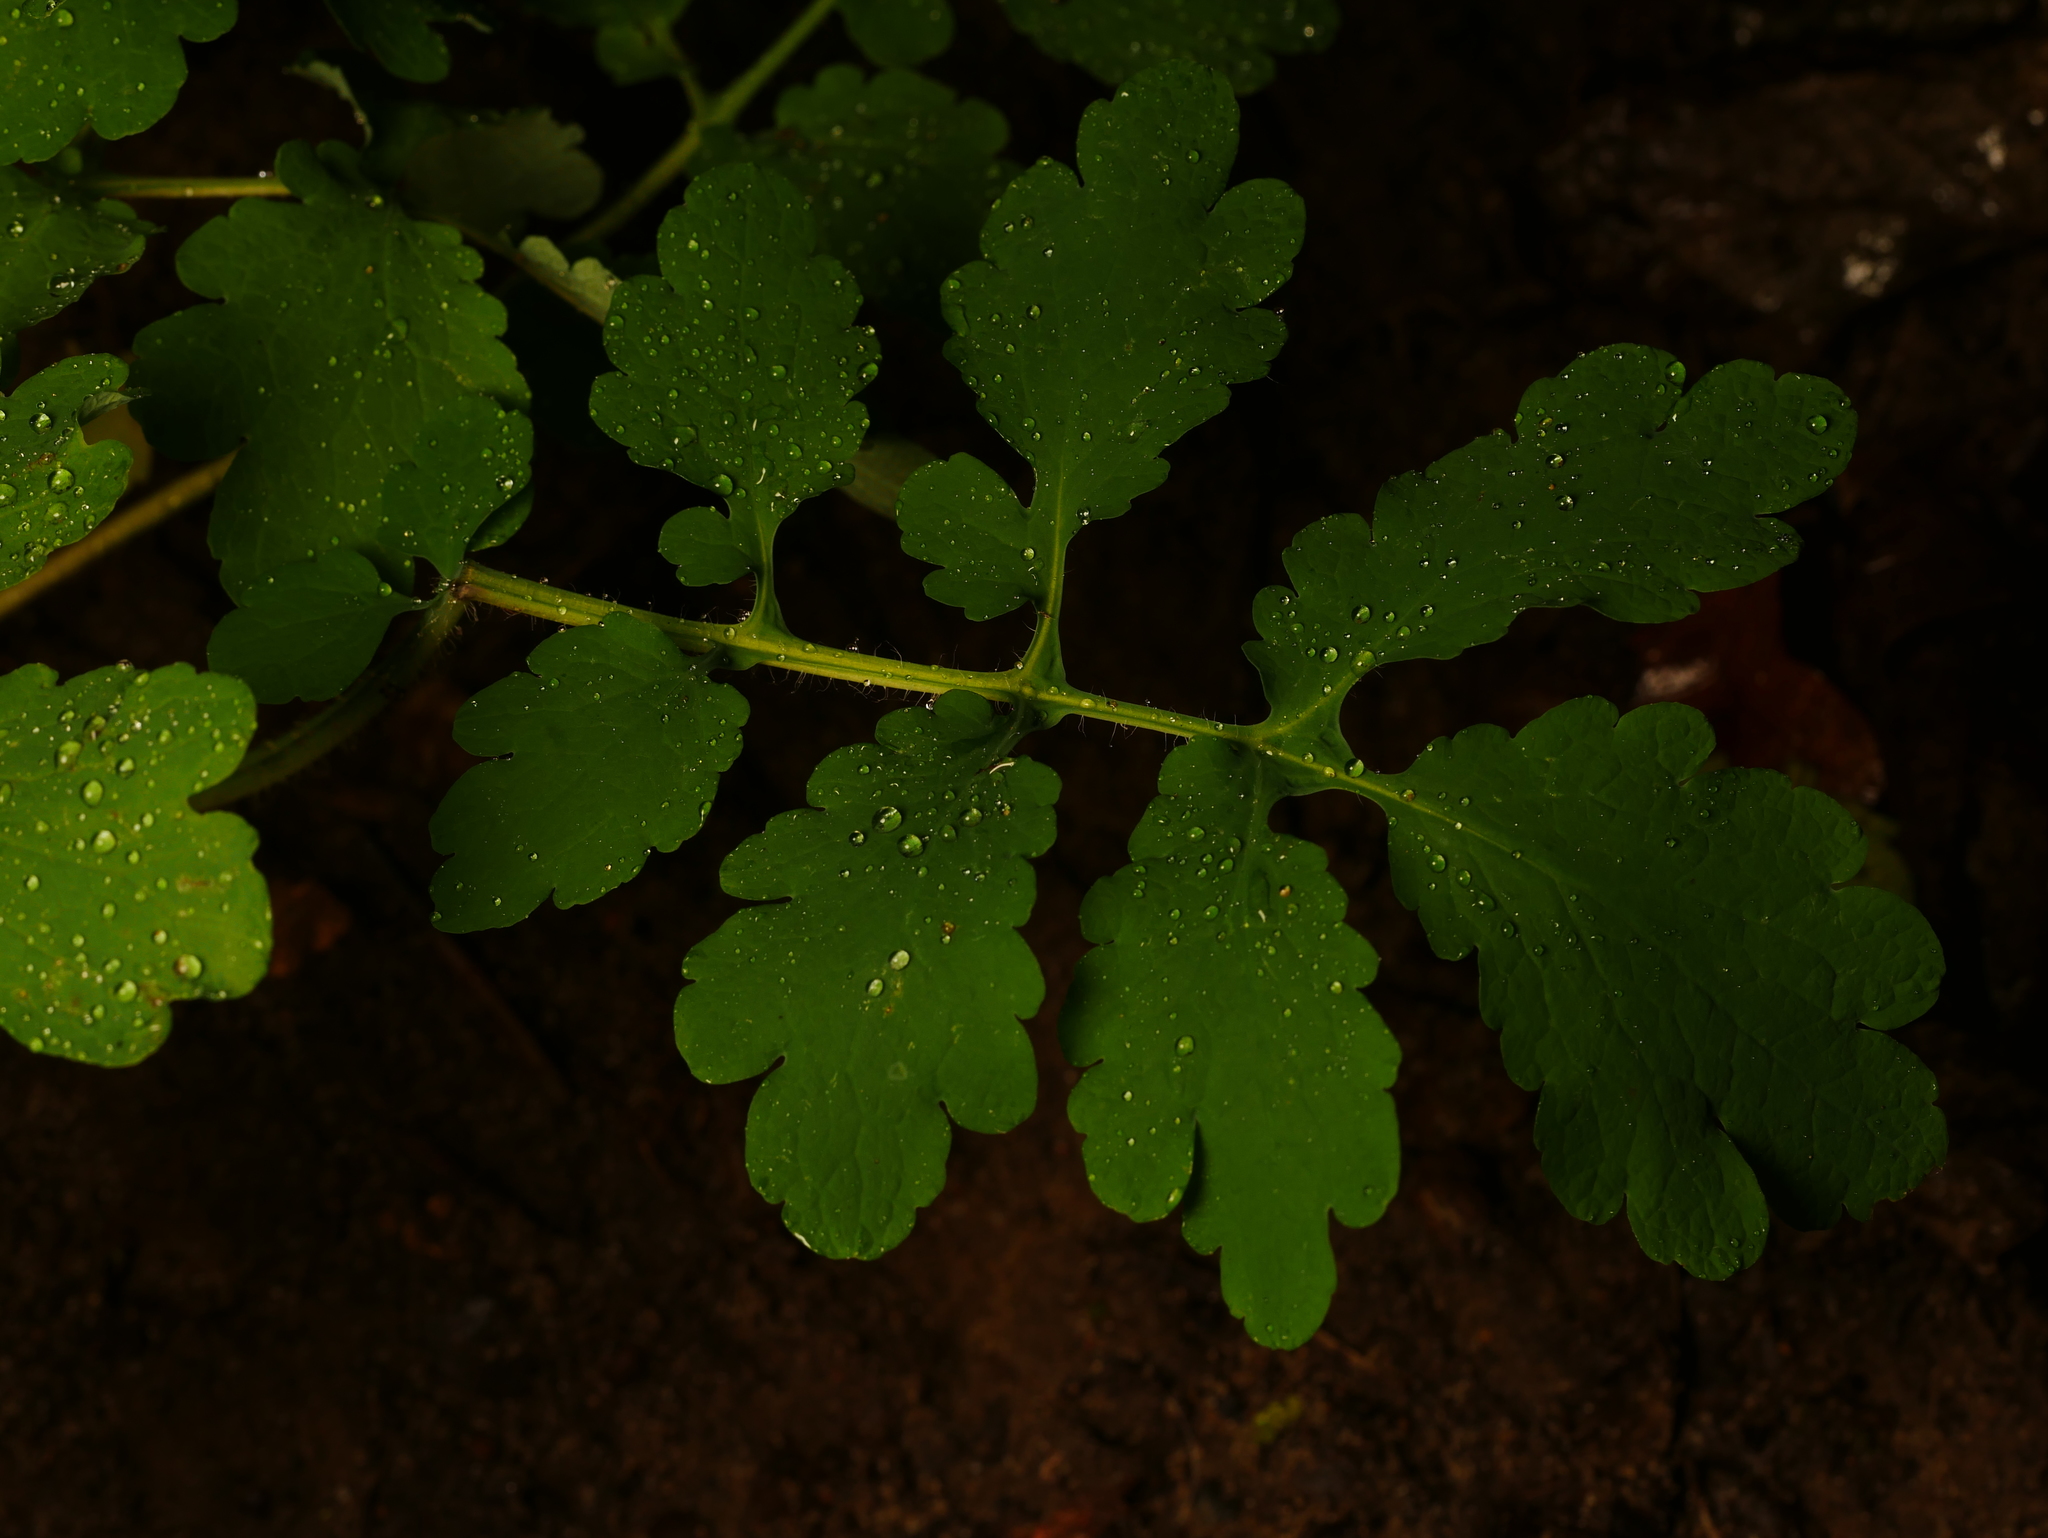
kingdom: Plantae
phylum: Tracheophyta
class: Magnoliopsida
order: Ranunculales
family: Papaveraceae
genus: Chelidonium
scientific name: Chelidonium majus
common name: Greater celandine
